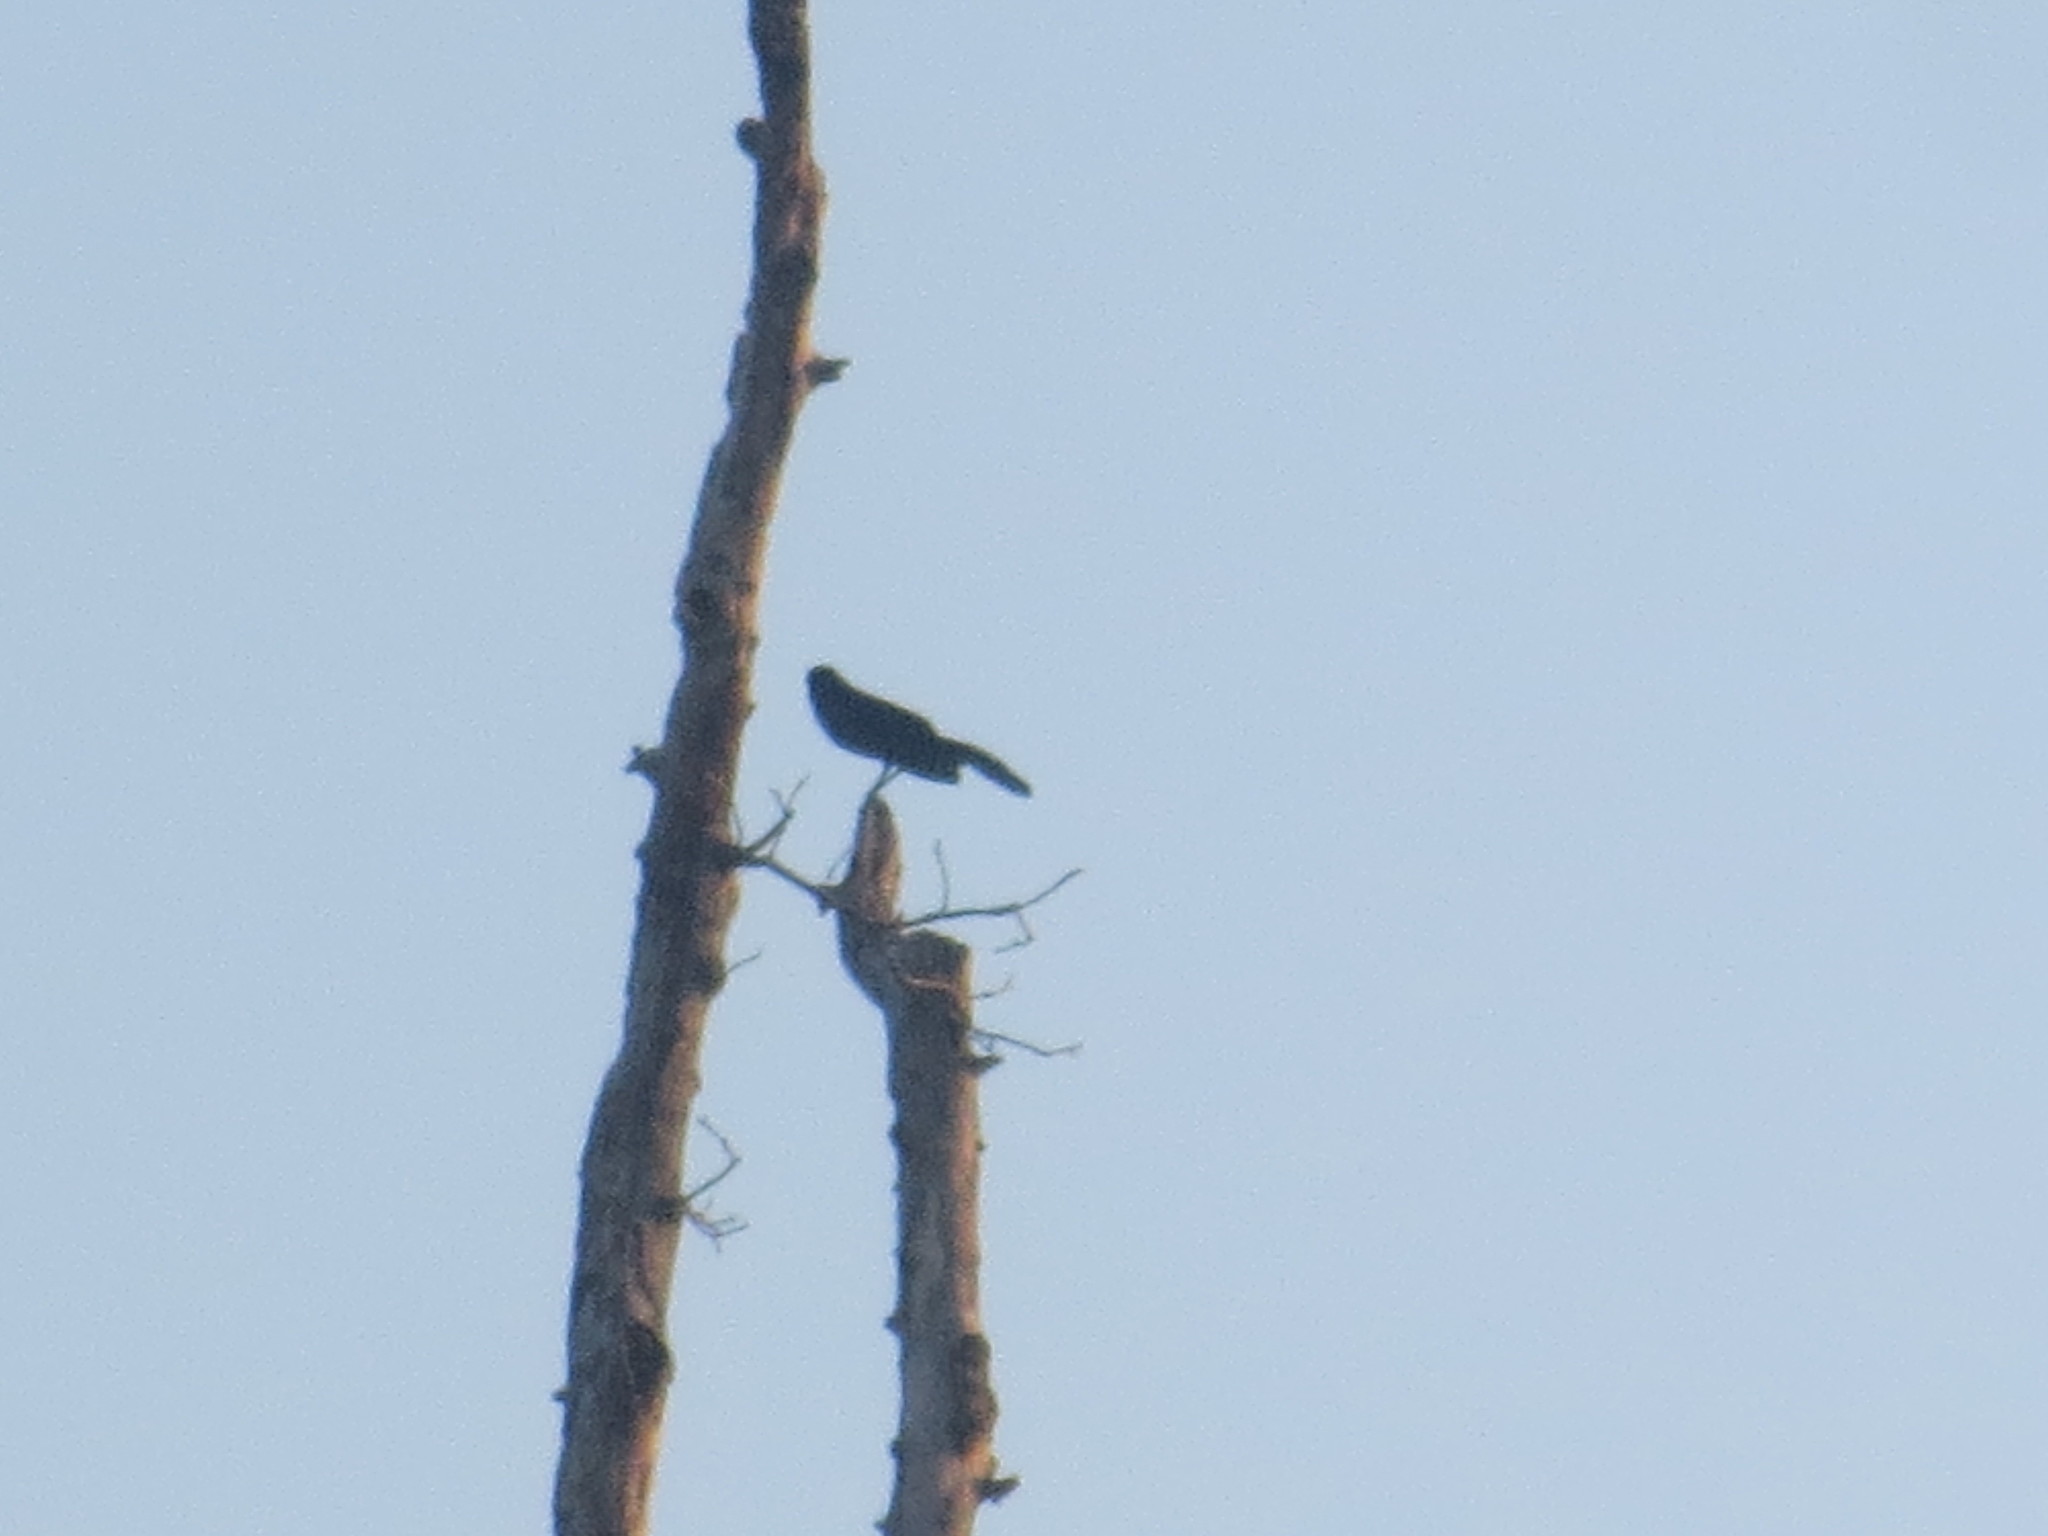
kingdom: Animalia
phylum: Chordata
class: Aves
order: Passeriformes
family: Icteridae
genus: Quiscalus
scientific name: Quiscalus major
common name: Boat-tailed grackle
